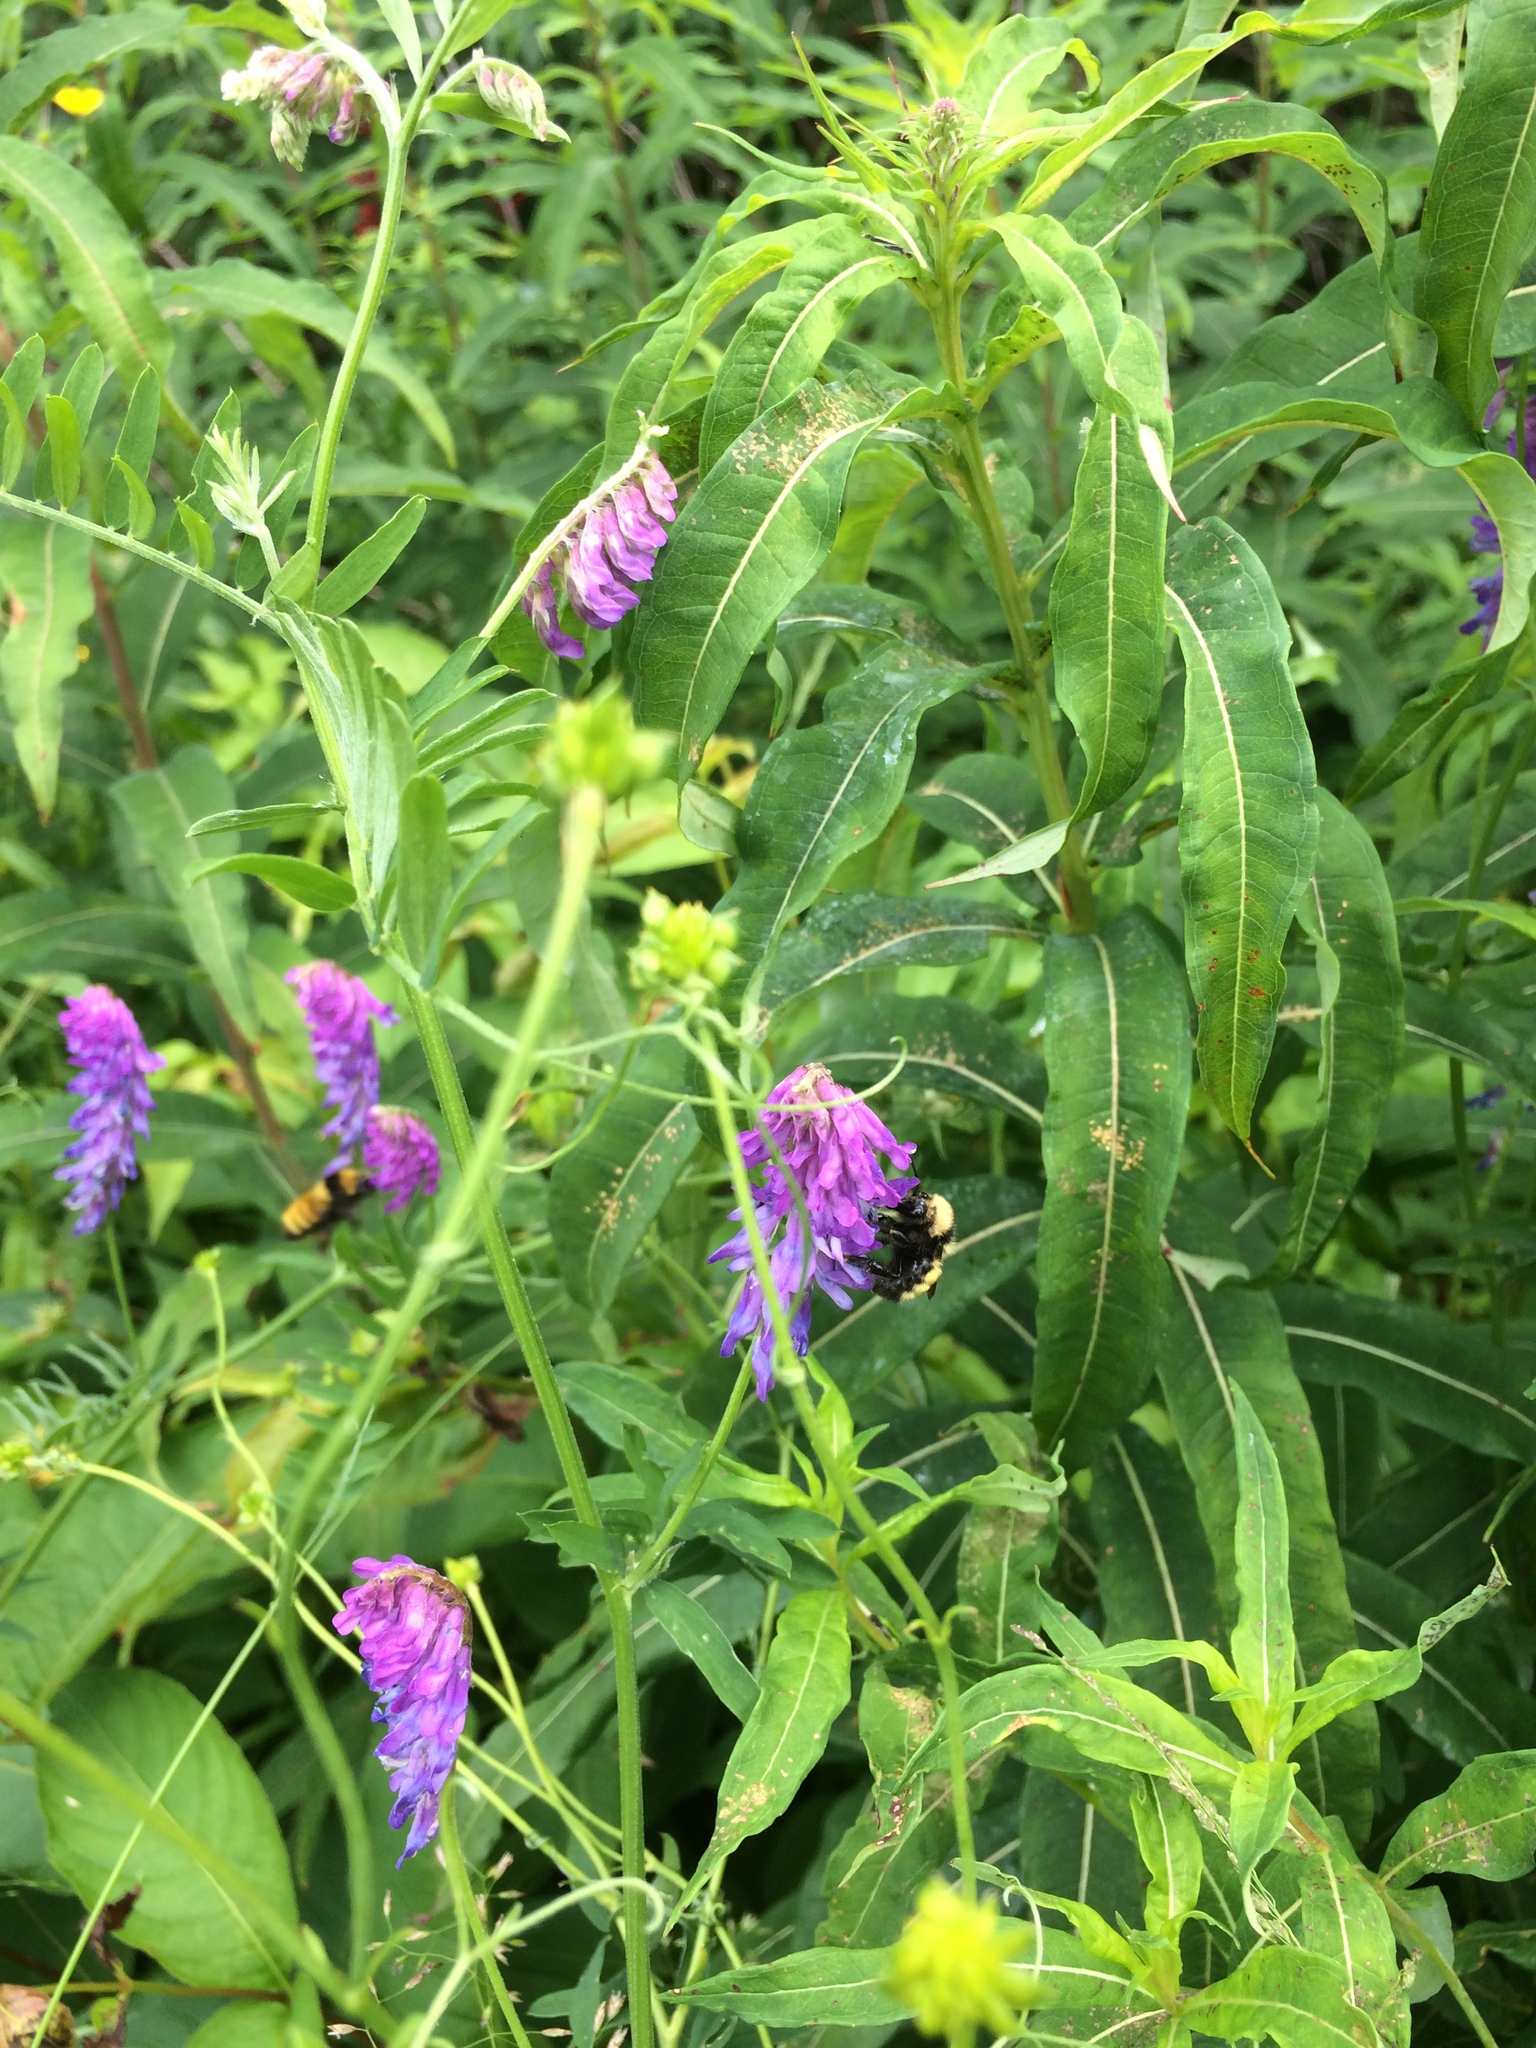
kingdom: Plantae
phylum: Tracheophyta
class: Magnoliopsida
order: Fabales
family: Fabaceae
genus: Vicia
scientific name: Vicia cracca
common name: Bird vetch
